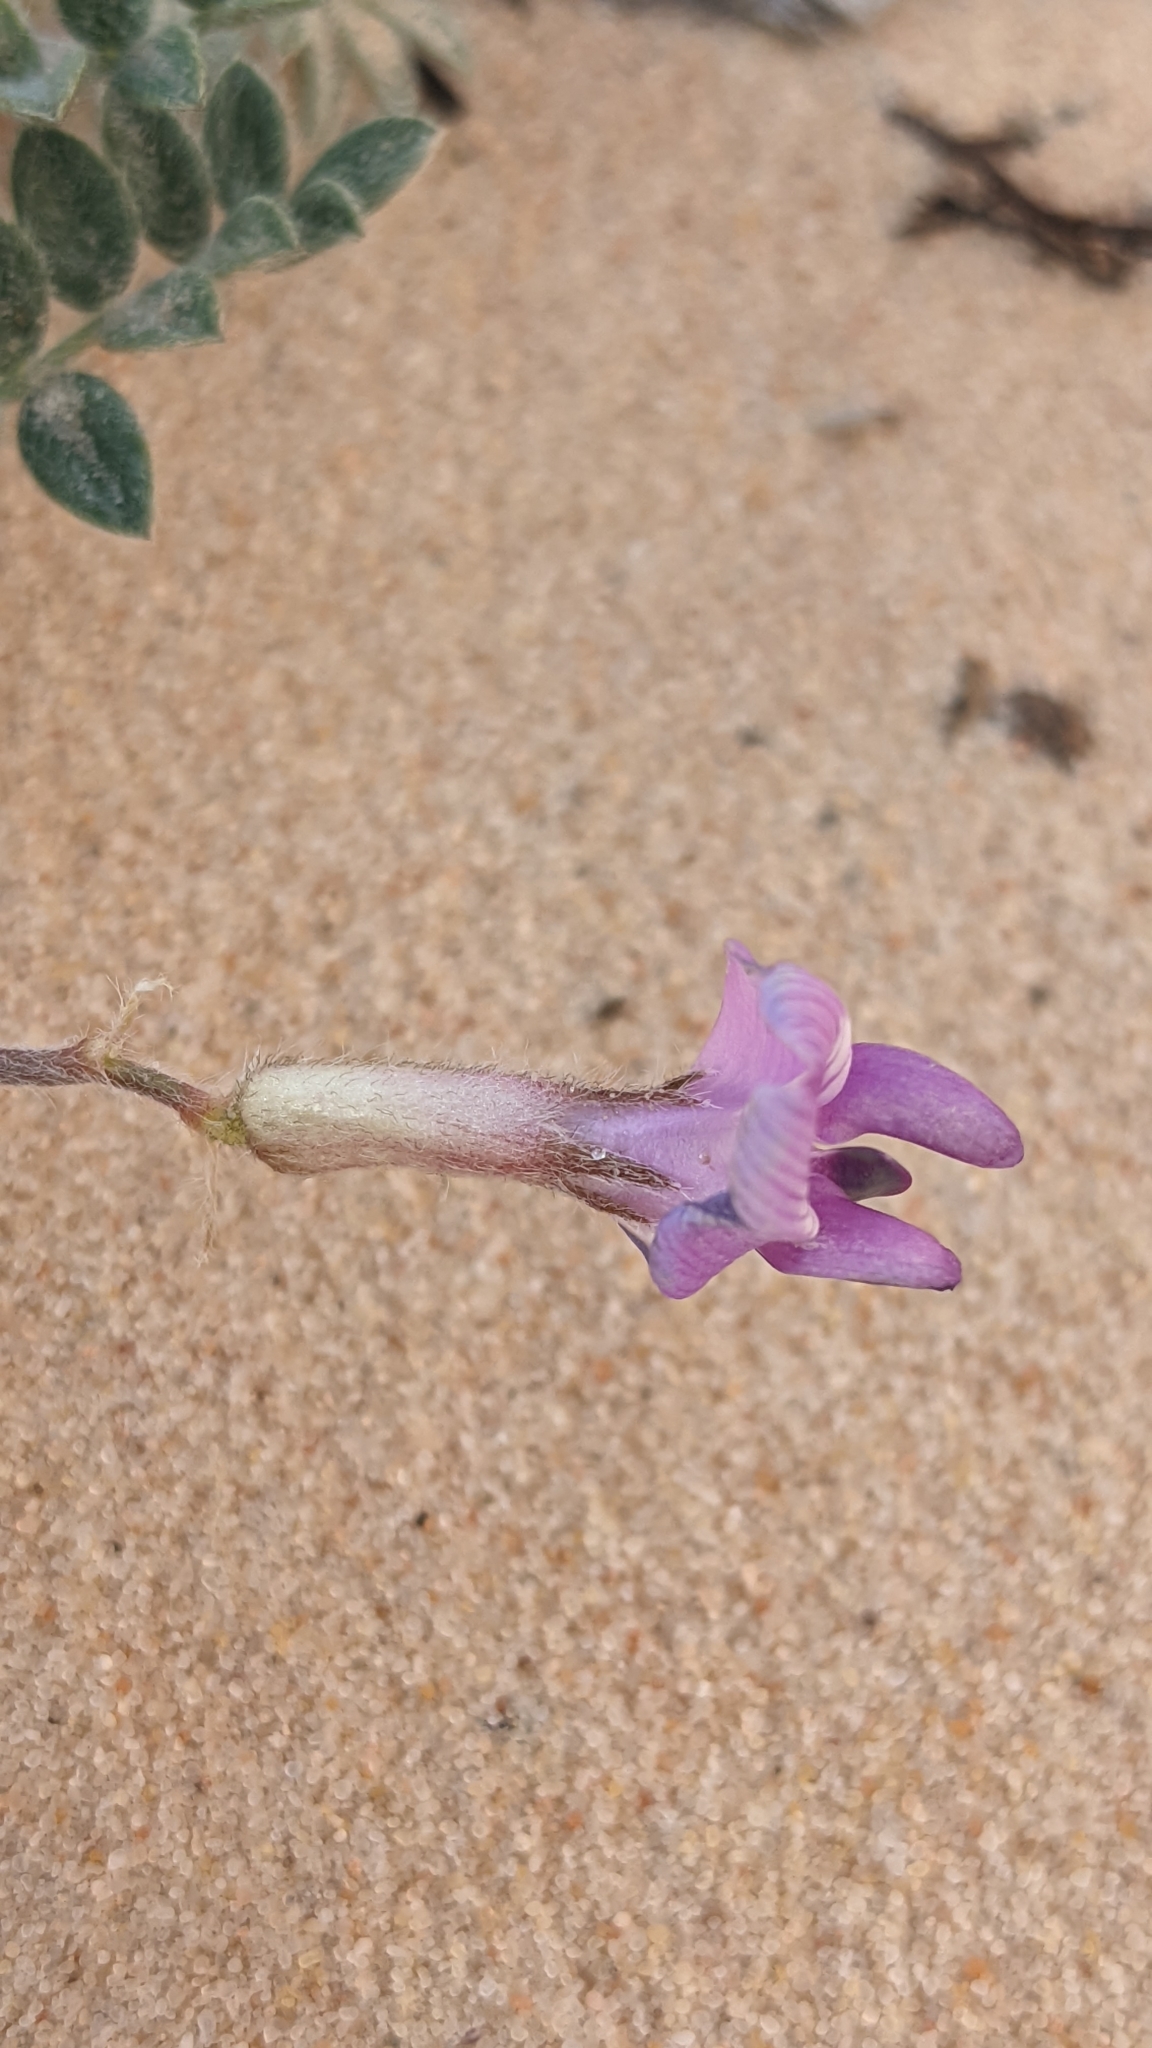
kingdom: Plantae
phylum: Tracheophyta
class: Magnoliopsida
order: Fabales
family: Fabaceae
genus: Astragalus
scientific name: Astragalus zionis
